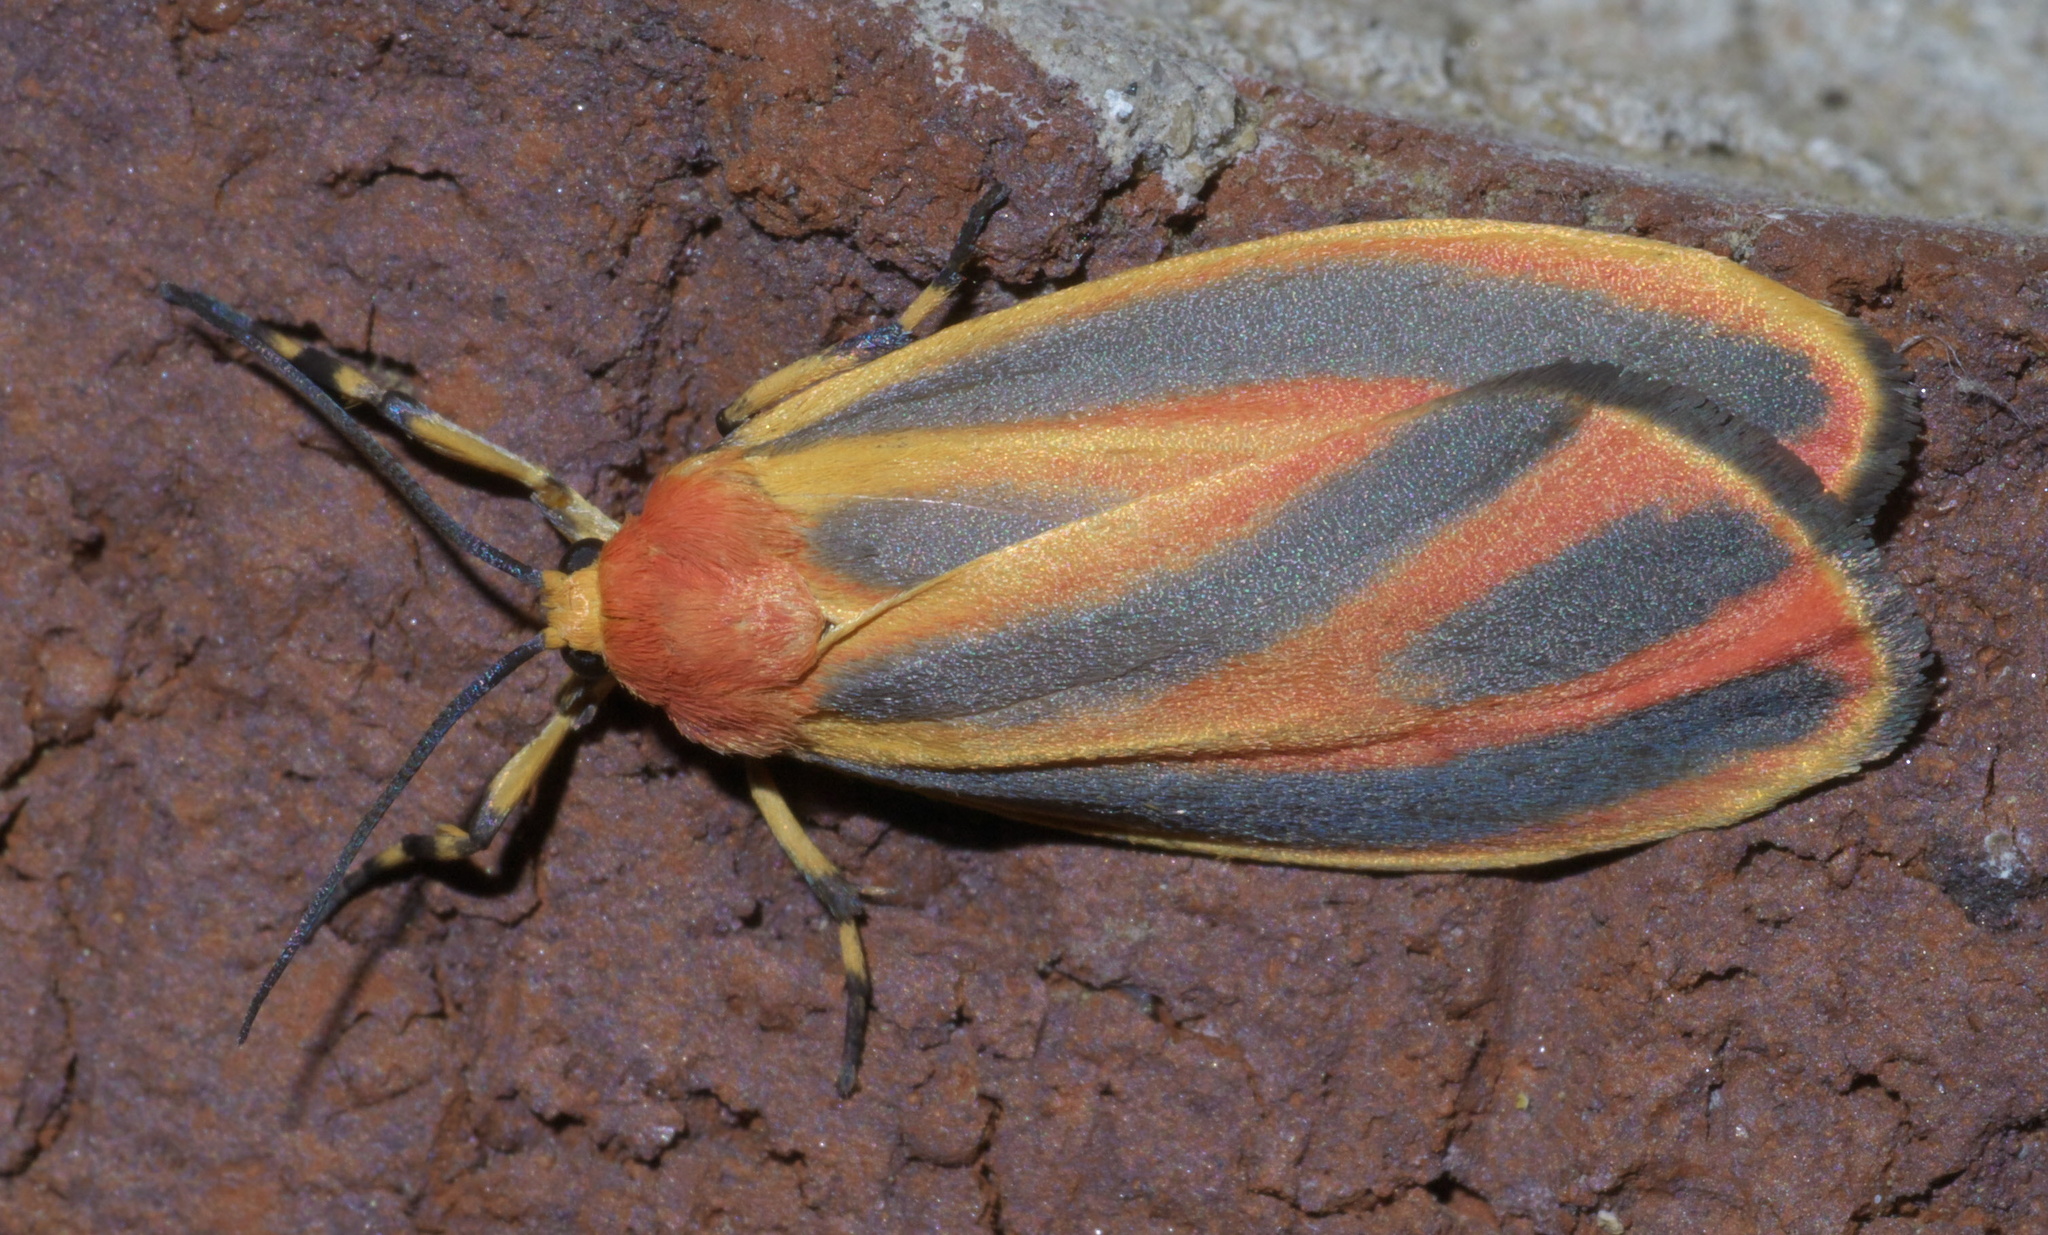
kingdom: Animalia
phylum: Arthropoda
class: Insecta
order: Lepidoptera
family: Erebidae
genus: Hypoprepia
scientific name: Hypoprepia fucosa
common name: Painted lichen moth
